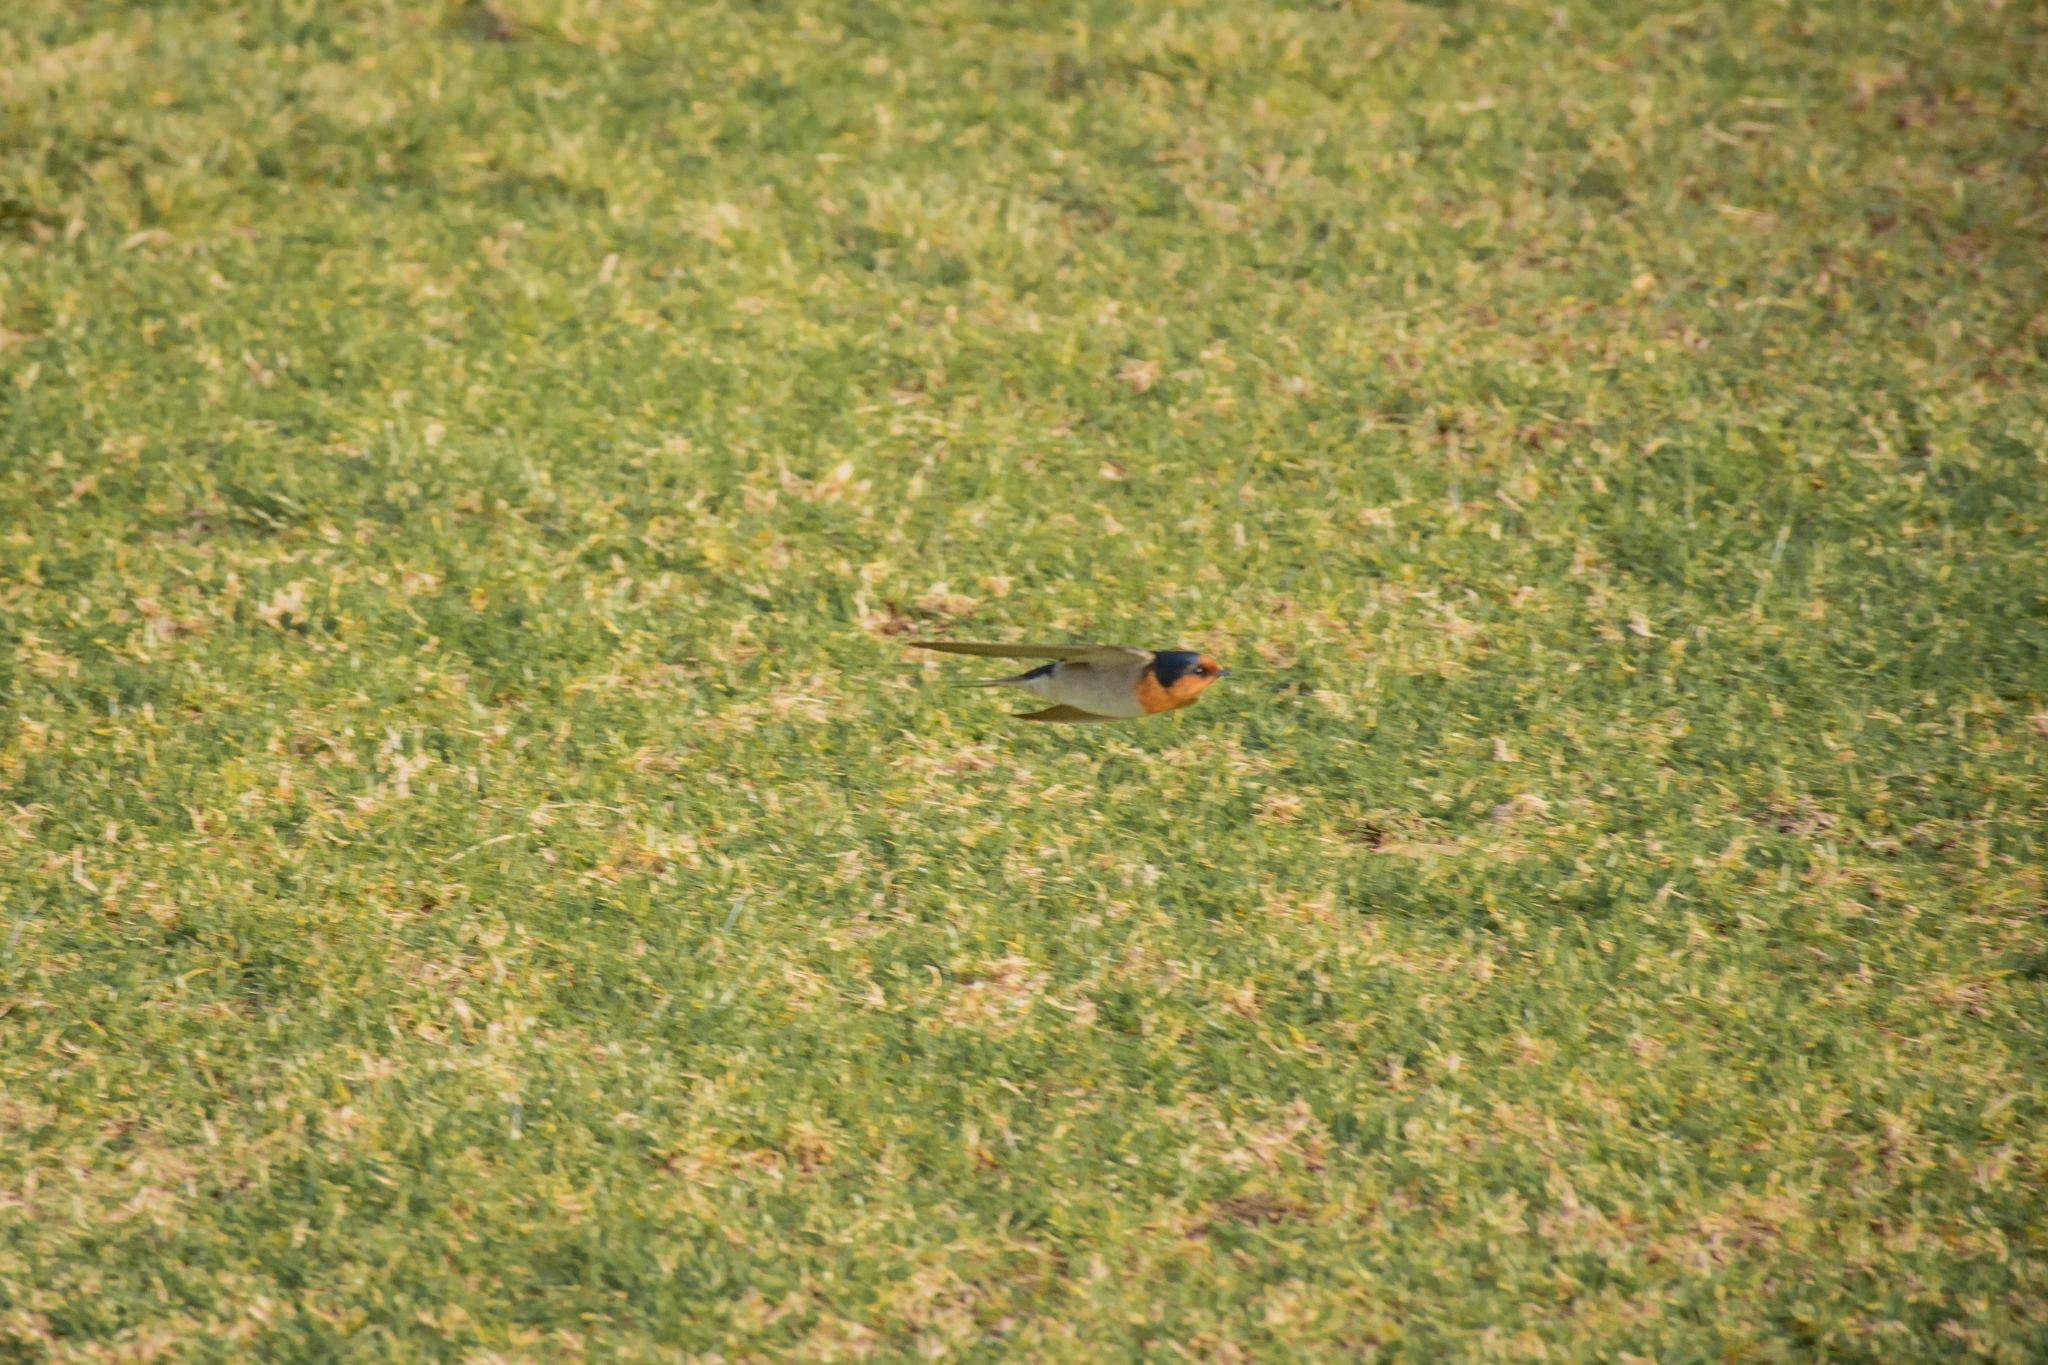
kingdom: Animalia
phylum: Chordata
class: Aves
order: Passeriformes
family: Hirundinidae
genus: Hirundo
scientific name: Hirundo neoxena
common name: Welcome swallow
